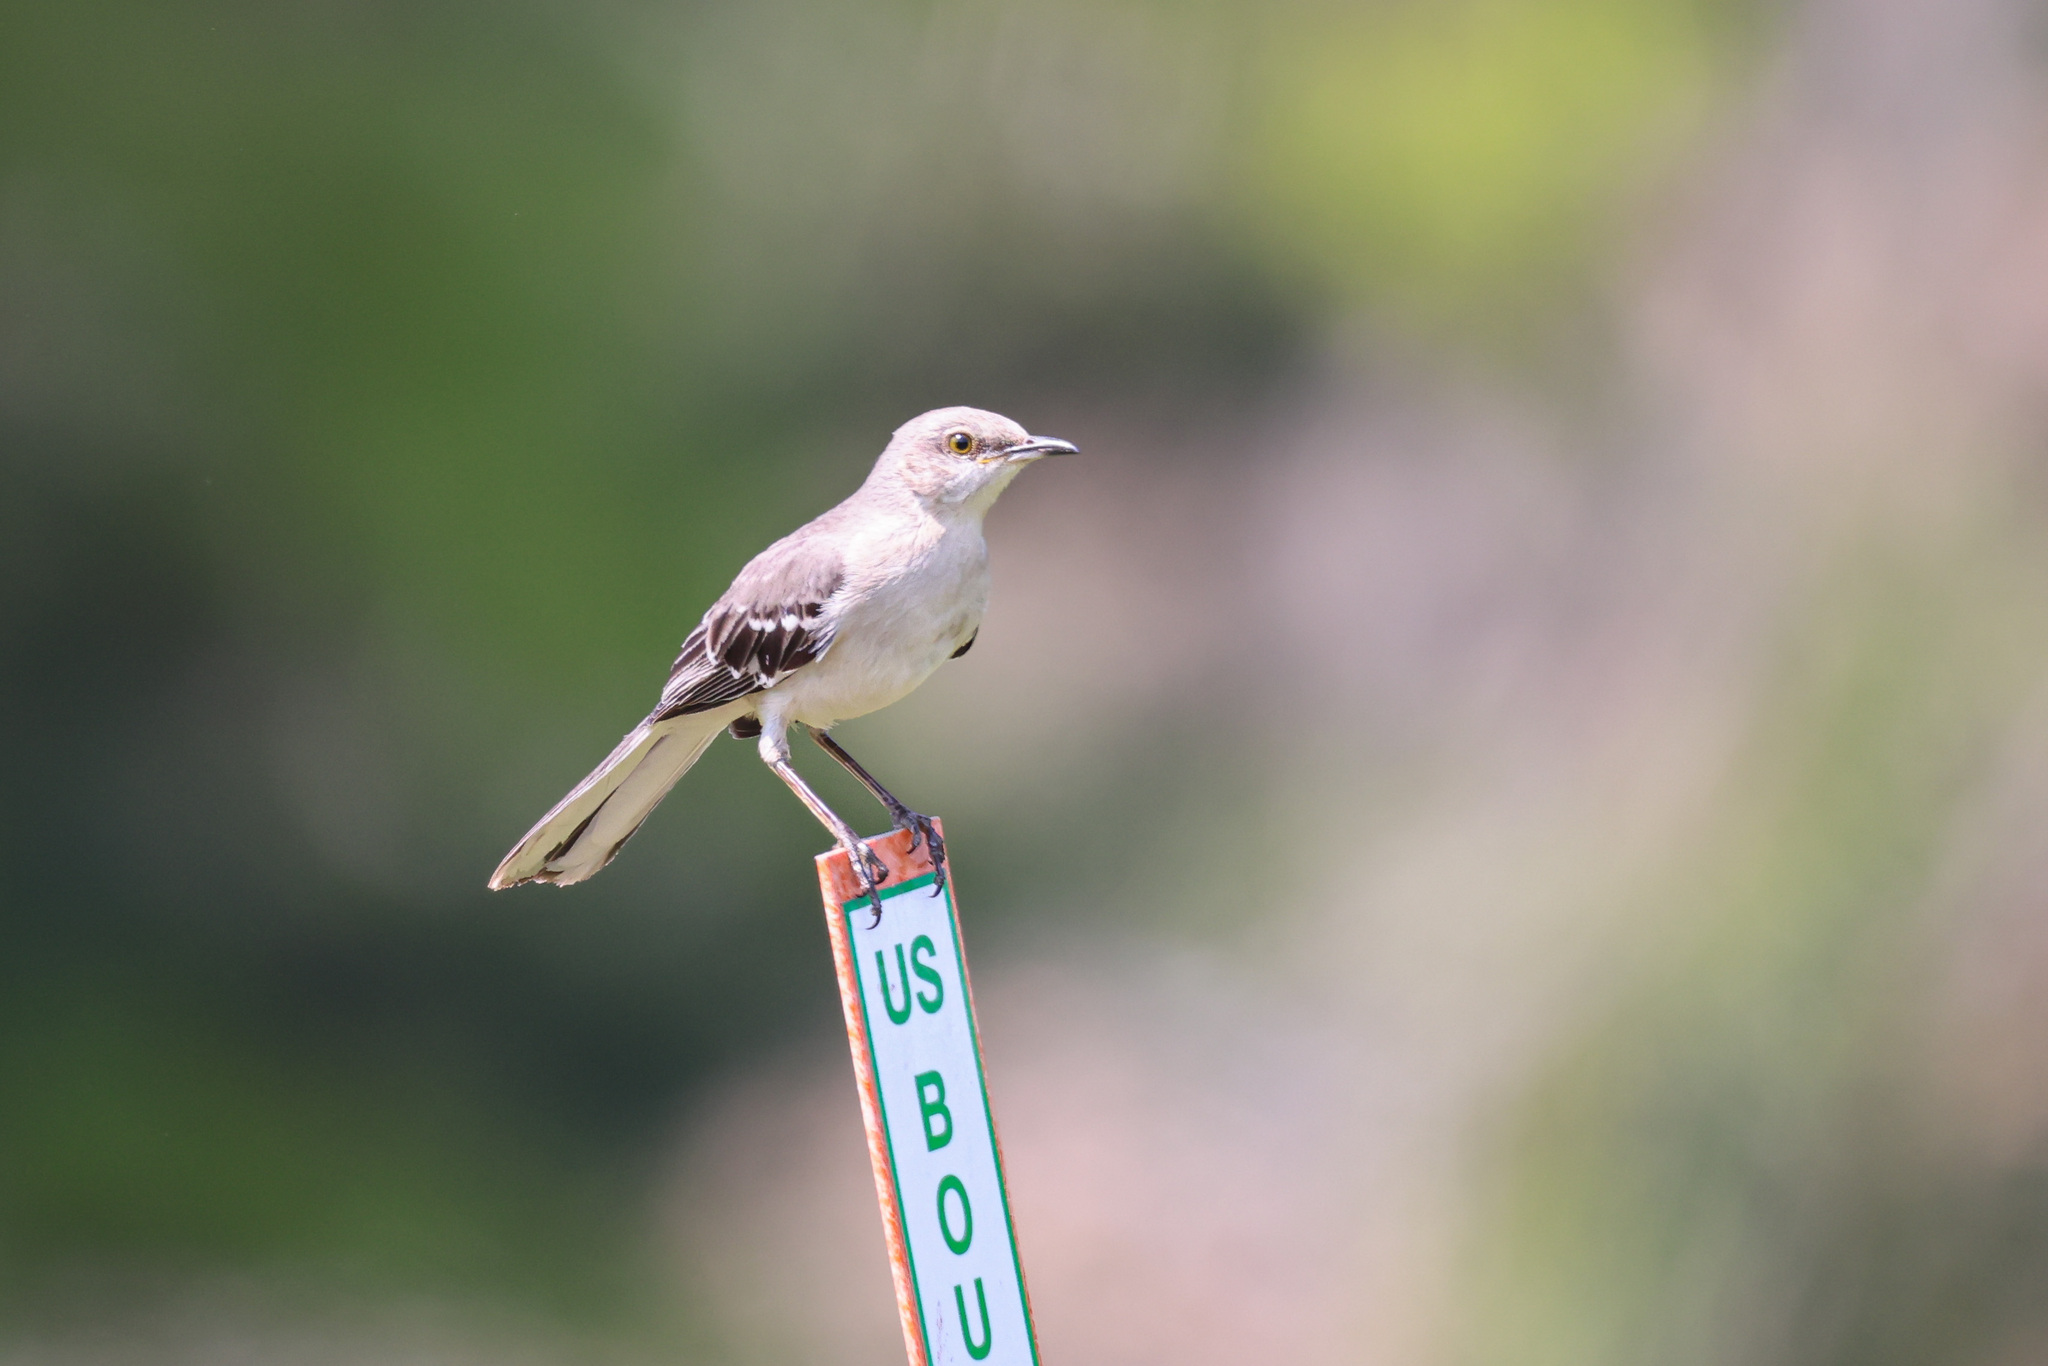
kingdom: Animalia
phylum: Chordata
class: Aves
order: Passeriformes
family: Mimidae
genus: Mimus
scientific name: Mimus polyglottos
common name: Northern mockingbird
